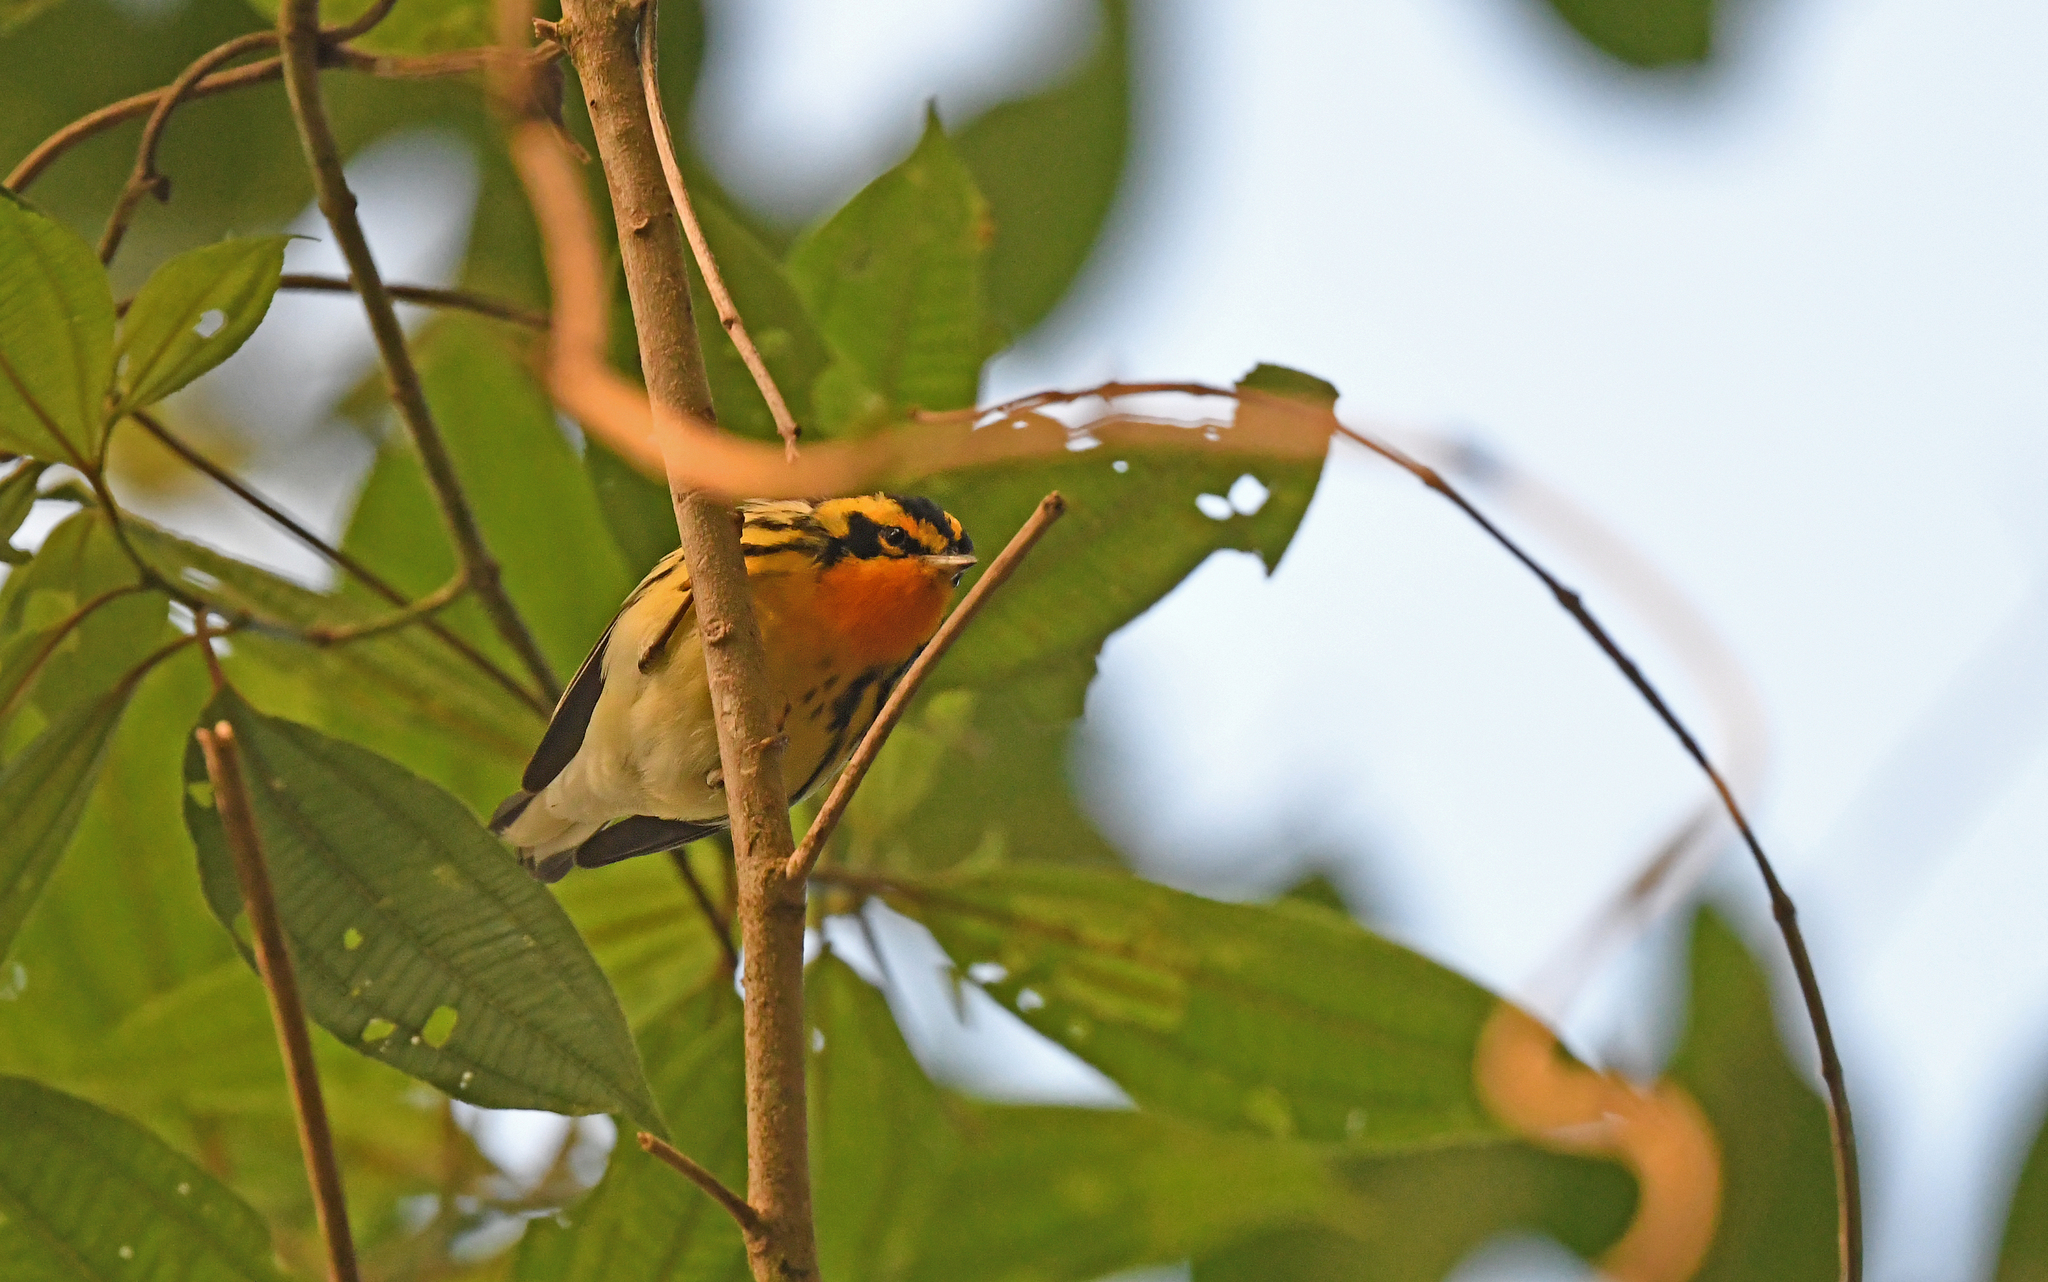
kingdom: Animalia
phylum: Chordata
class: Aves
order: Passeriformes
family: Parulidae
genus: Setophaga
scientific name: Setophaga fusca
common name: Blackburnian warbler
